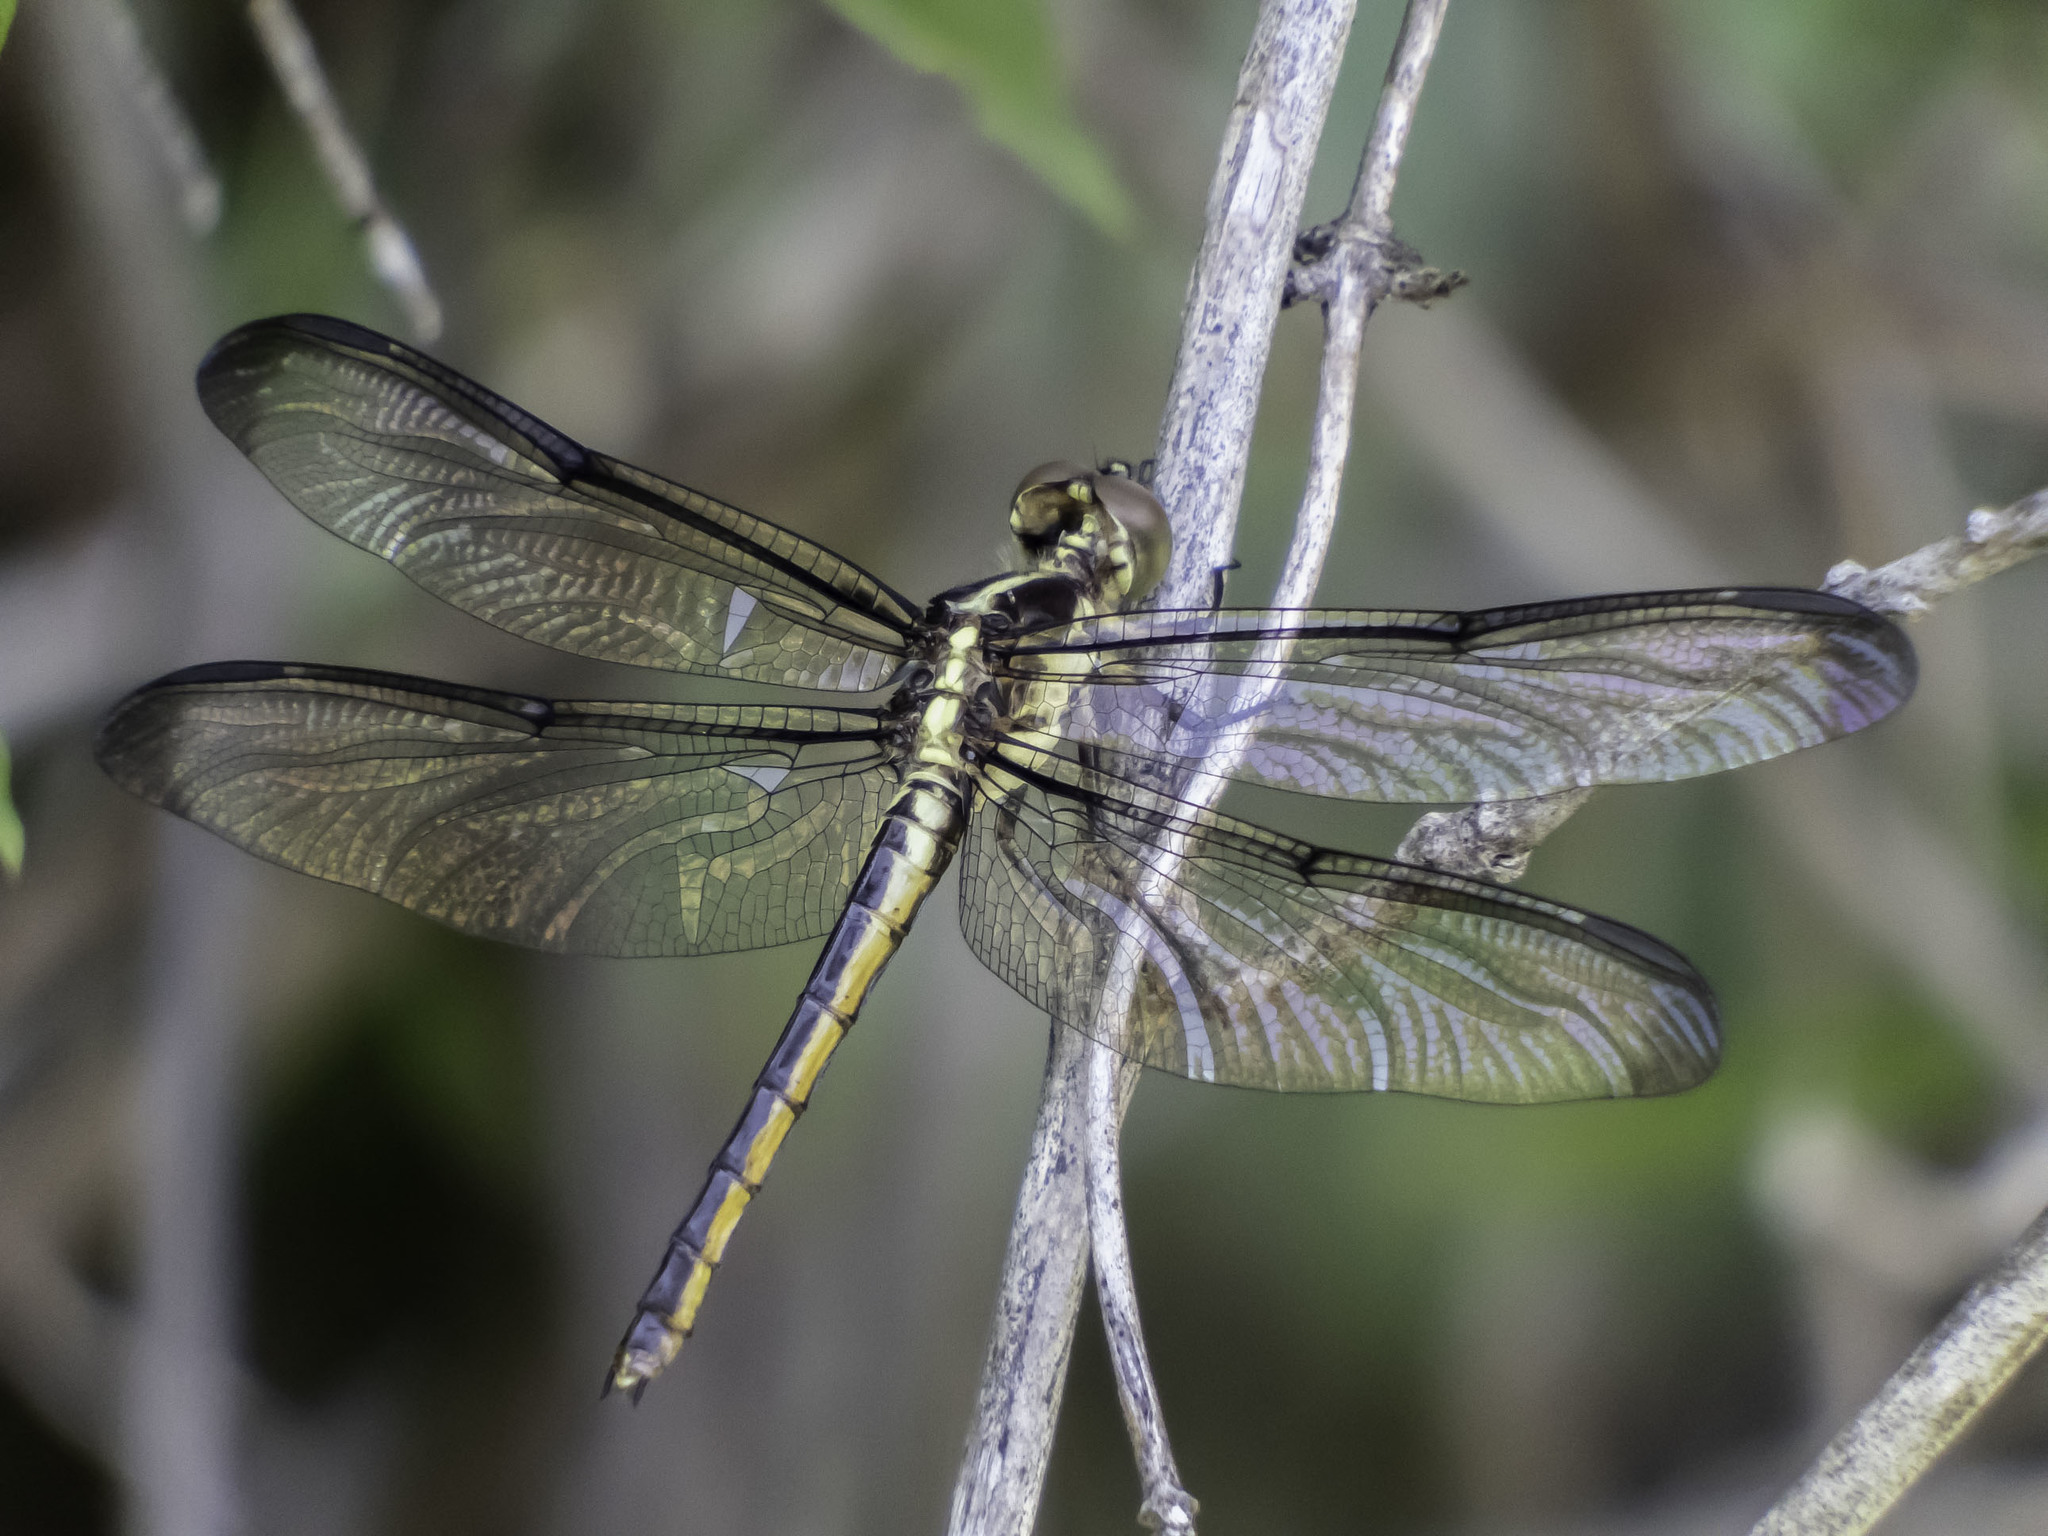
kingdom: Animalia
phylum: Arthropoda
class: Insecta
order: Odonata
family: Libellulidae
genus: Libellula
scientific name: Libellula incesta
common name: Slaty skimmer
